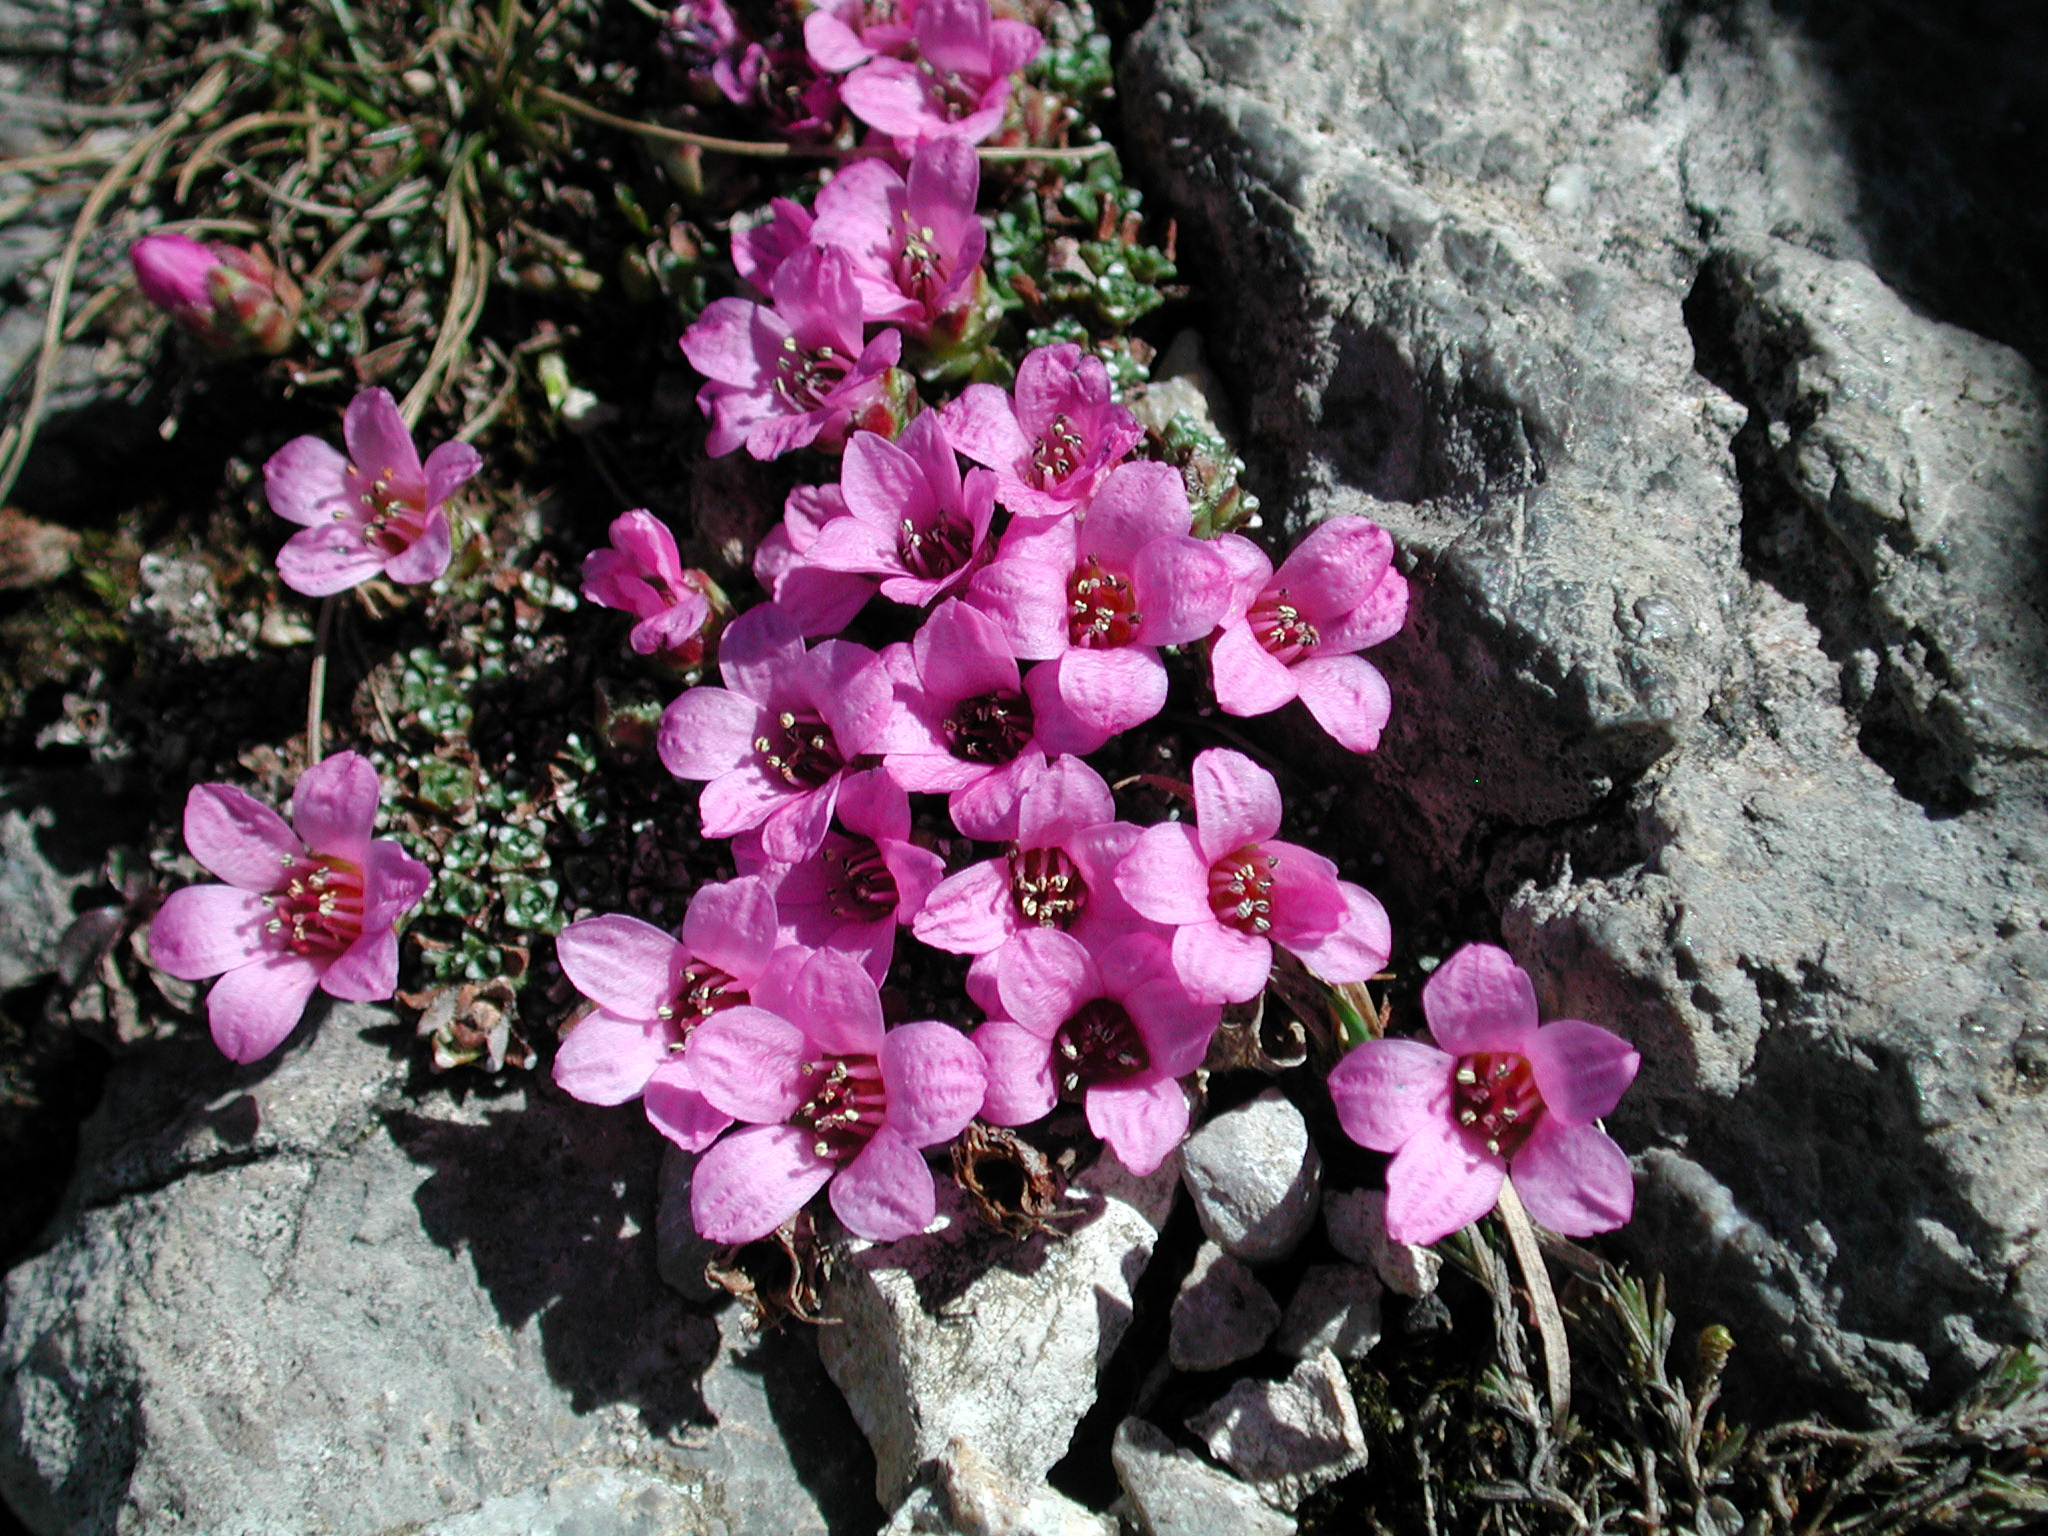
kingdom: Plantae
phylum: Tracheophyta
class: Magnoliopsida
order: Saxifragales
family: Saxifragaceae
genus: Saxifraga
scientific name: Saxifraga oppositifolia
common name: Purple saxifrage
